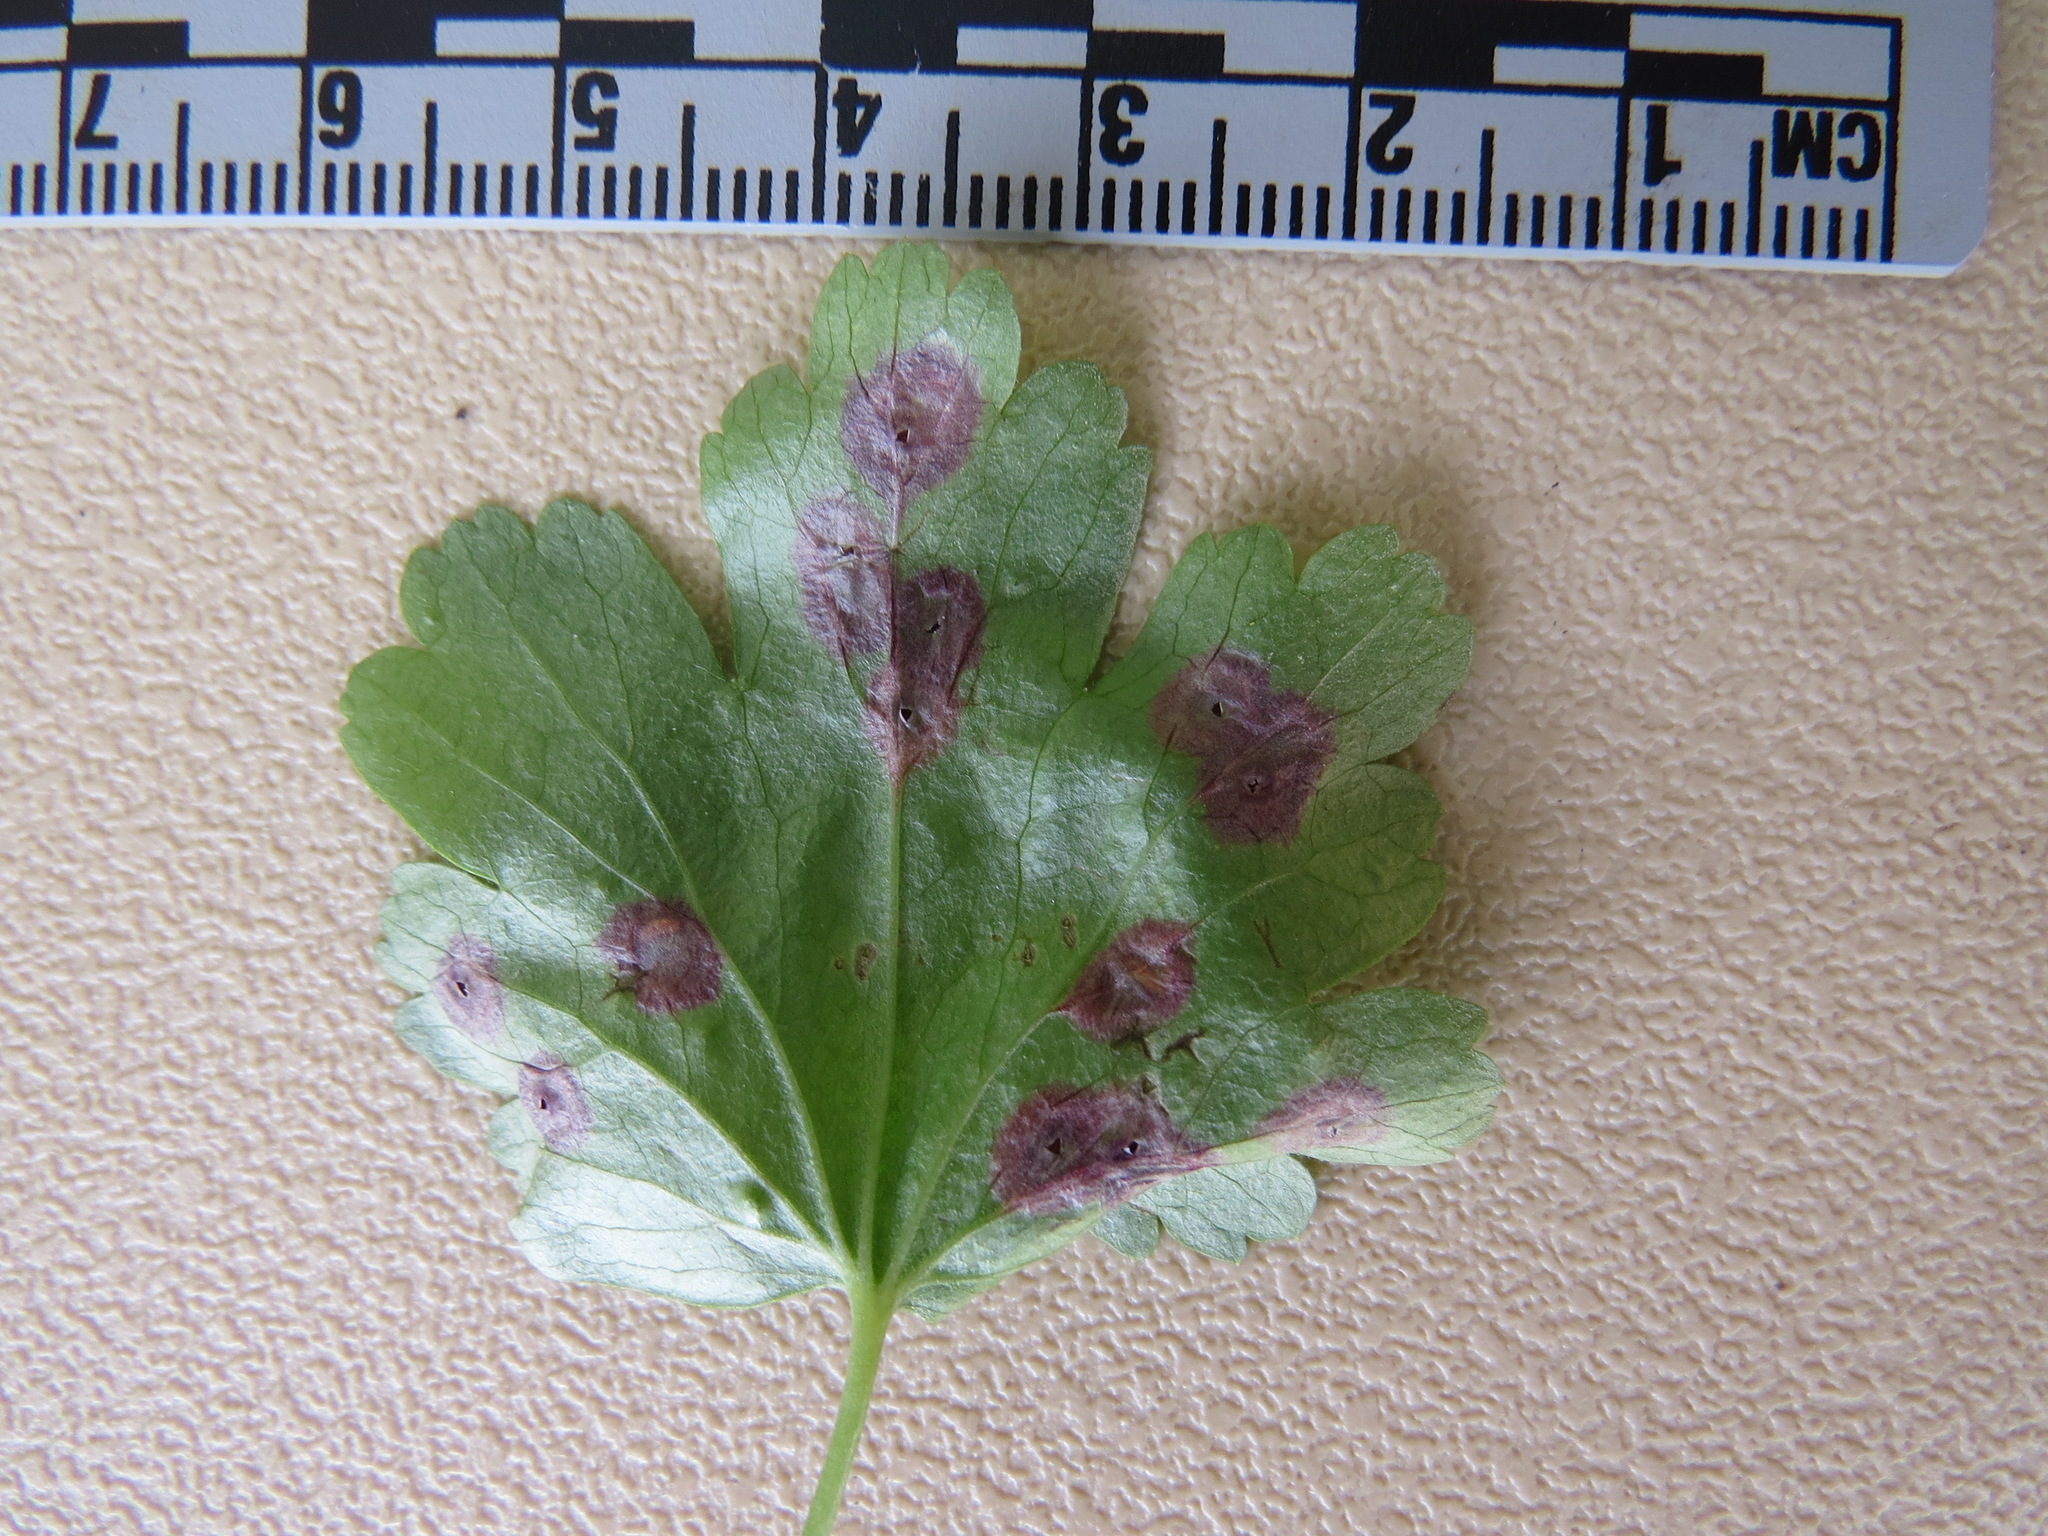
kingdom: Animalia
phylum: Arthropoda
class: Insecta
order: Diptera
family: Cecidomyiidae
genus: Ribesia
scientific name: Ribesia
